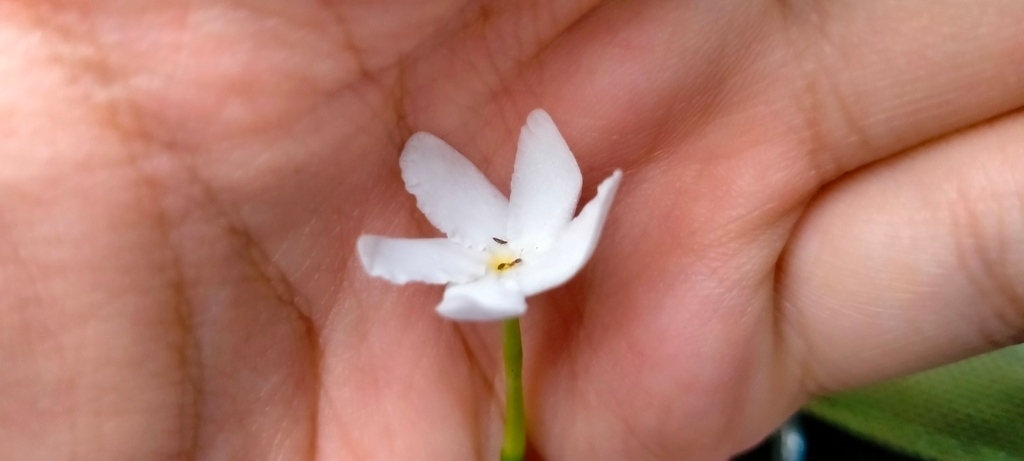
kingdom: Animalia
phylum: Arthropoda
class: Insecta
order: Hymenoptera
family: Formicidae
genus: Monomorium
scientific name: Monomorium floricola
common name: Bicolored trailing ant
